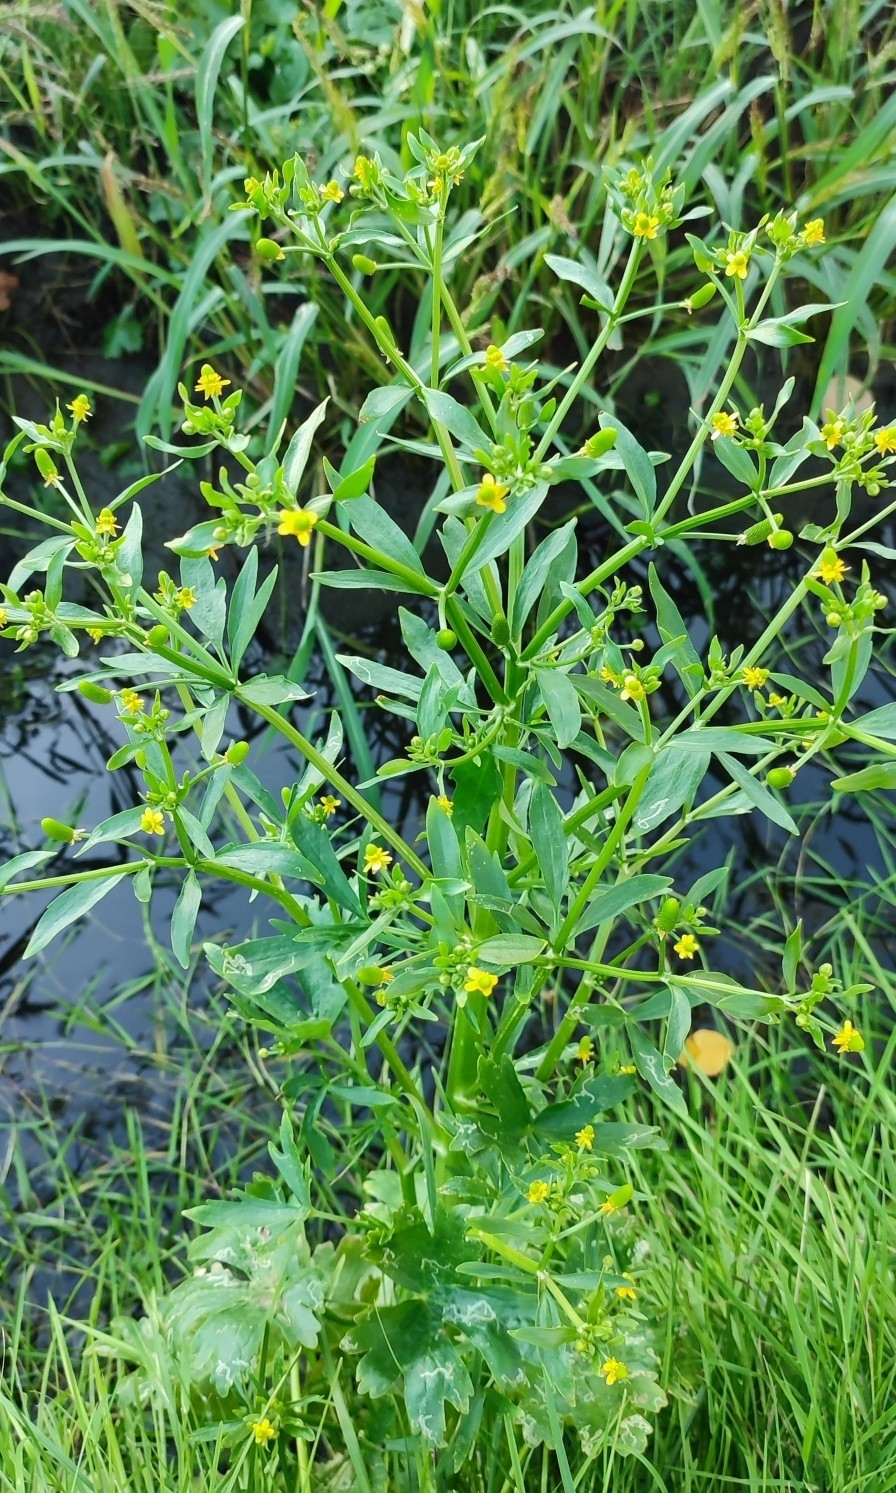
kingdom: Plantae
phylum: Tracheophyta
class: Magnoliopsida
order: Ranunculales
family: Ranunculaceae
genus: Ranunculus
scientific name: Ranunculus sceleratus
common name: Celery-leaved buttercup
